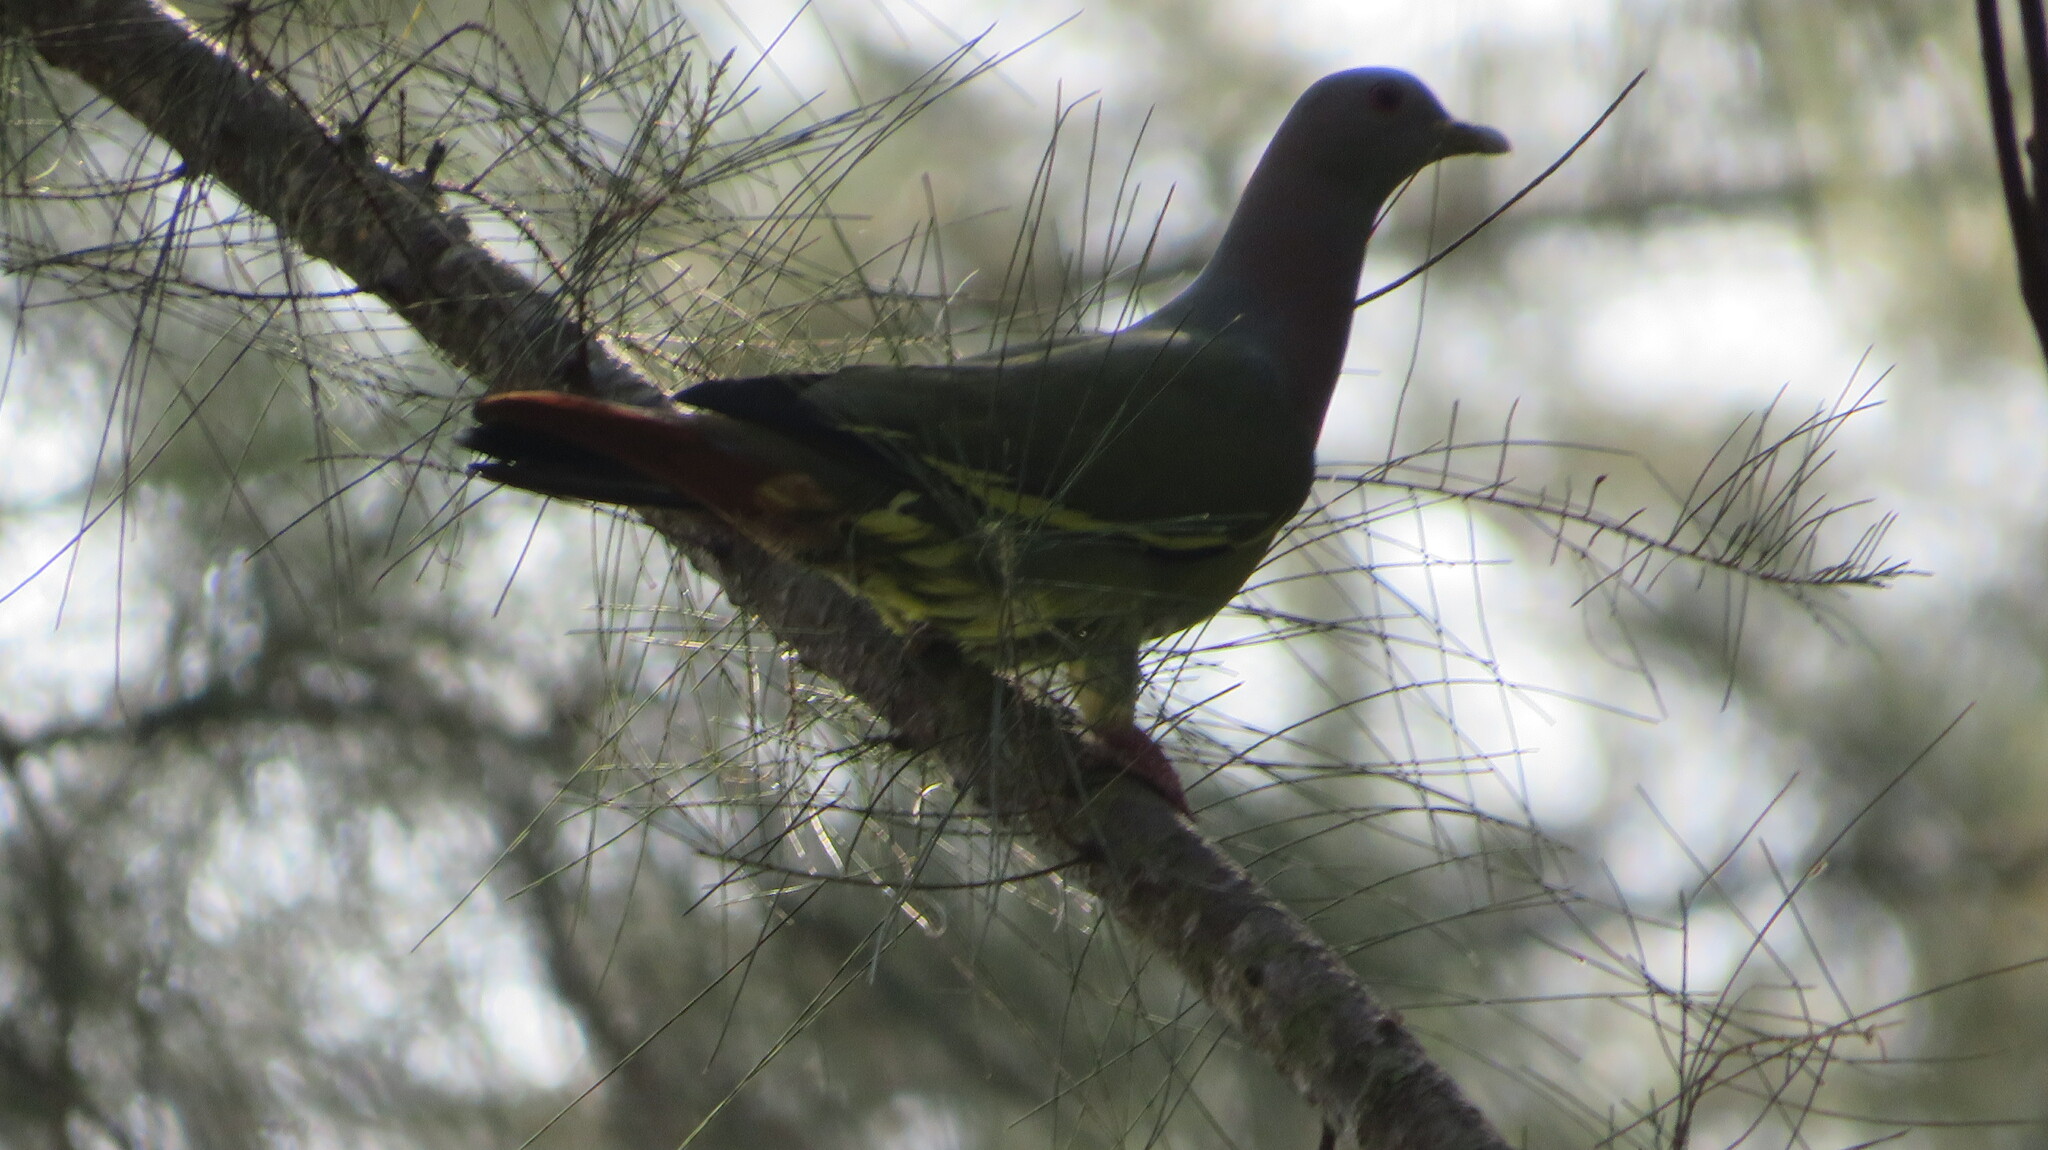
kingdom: Animalia
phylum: Chordata
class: Aves
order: Columbiformes
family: Columbidae
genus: Treron
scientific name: Treron vernans
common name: Pink-necked green pigeon
